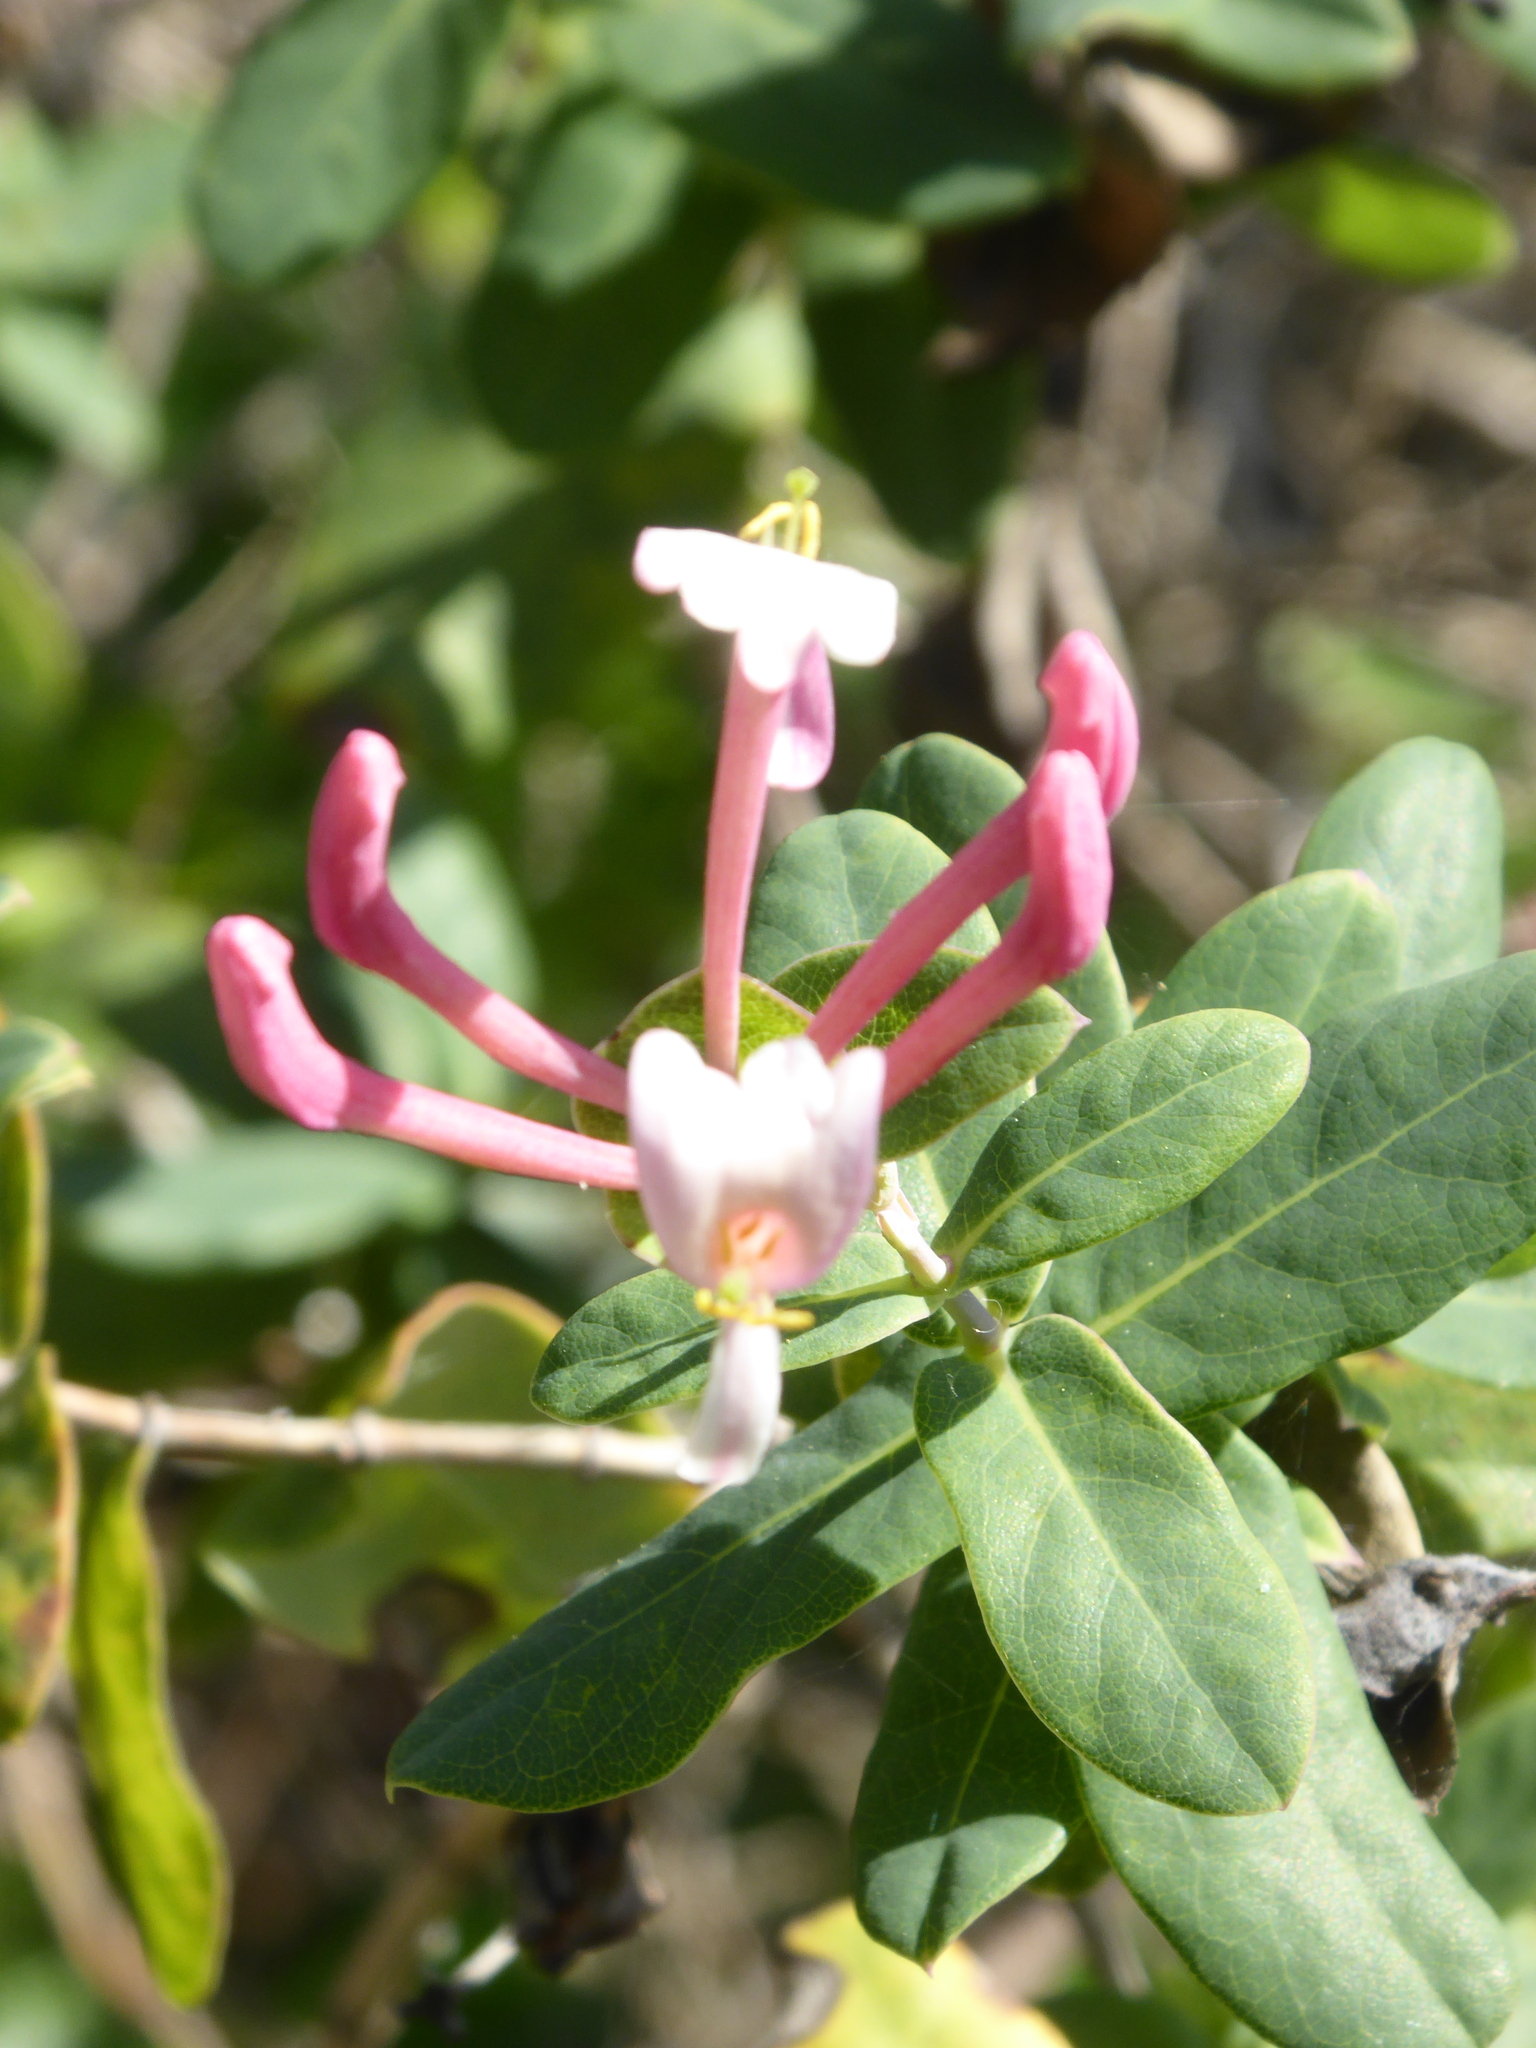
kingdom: Plantae
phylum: Tracheophyta
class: Magnoliopsida
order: Dipsacales
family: Caprifoliaceae
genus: Lonicera
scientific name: Lonicera implexa
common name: Minorca honeysuckle
